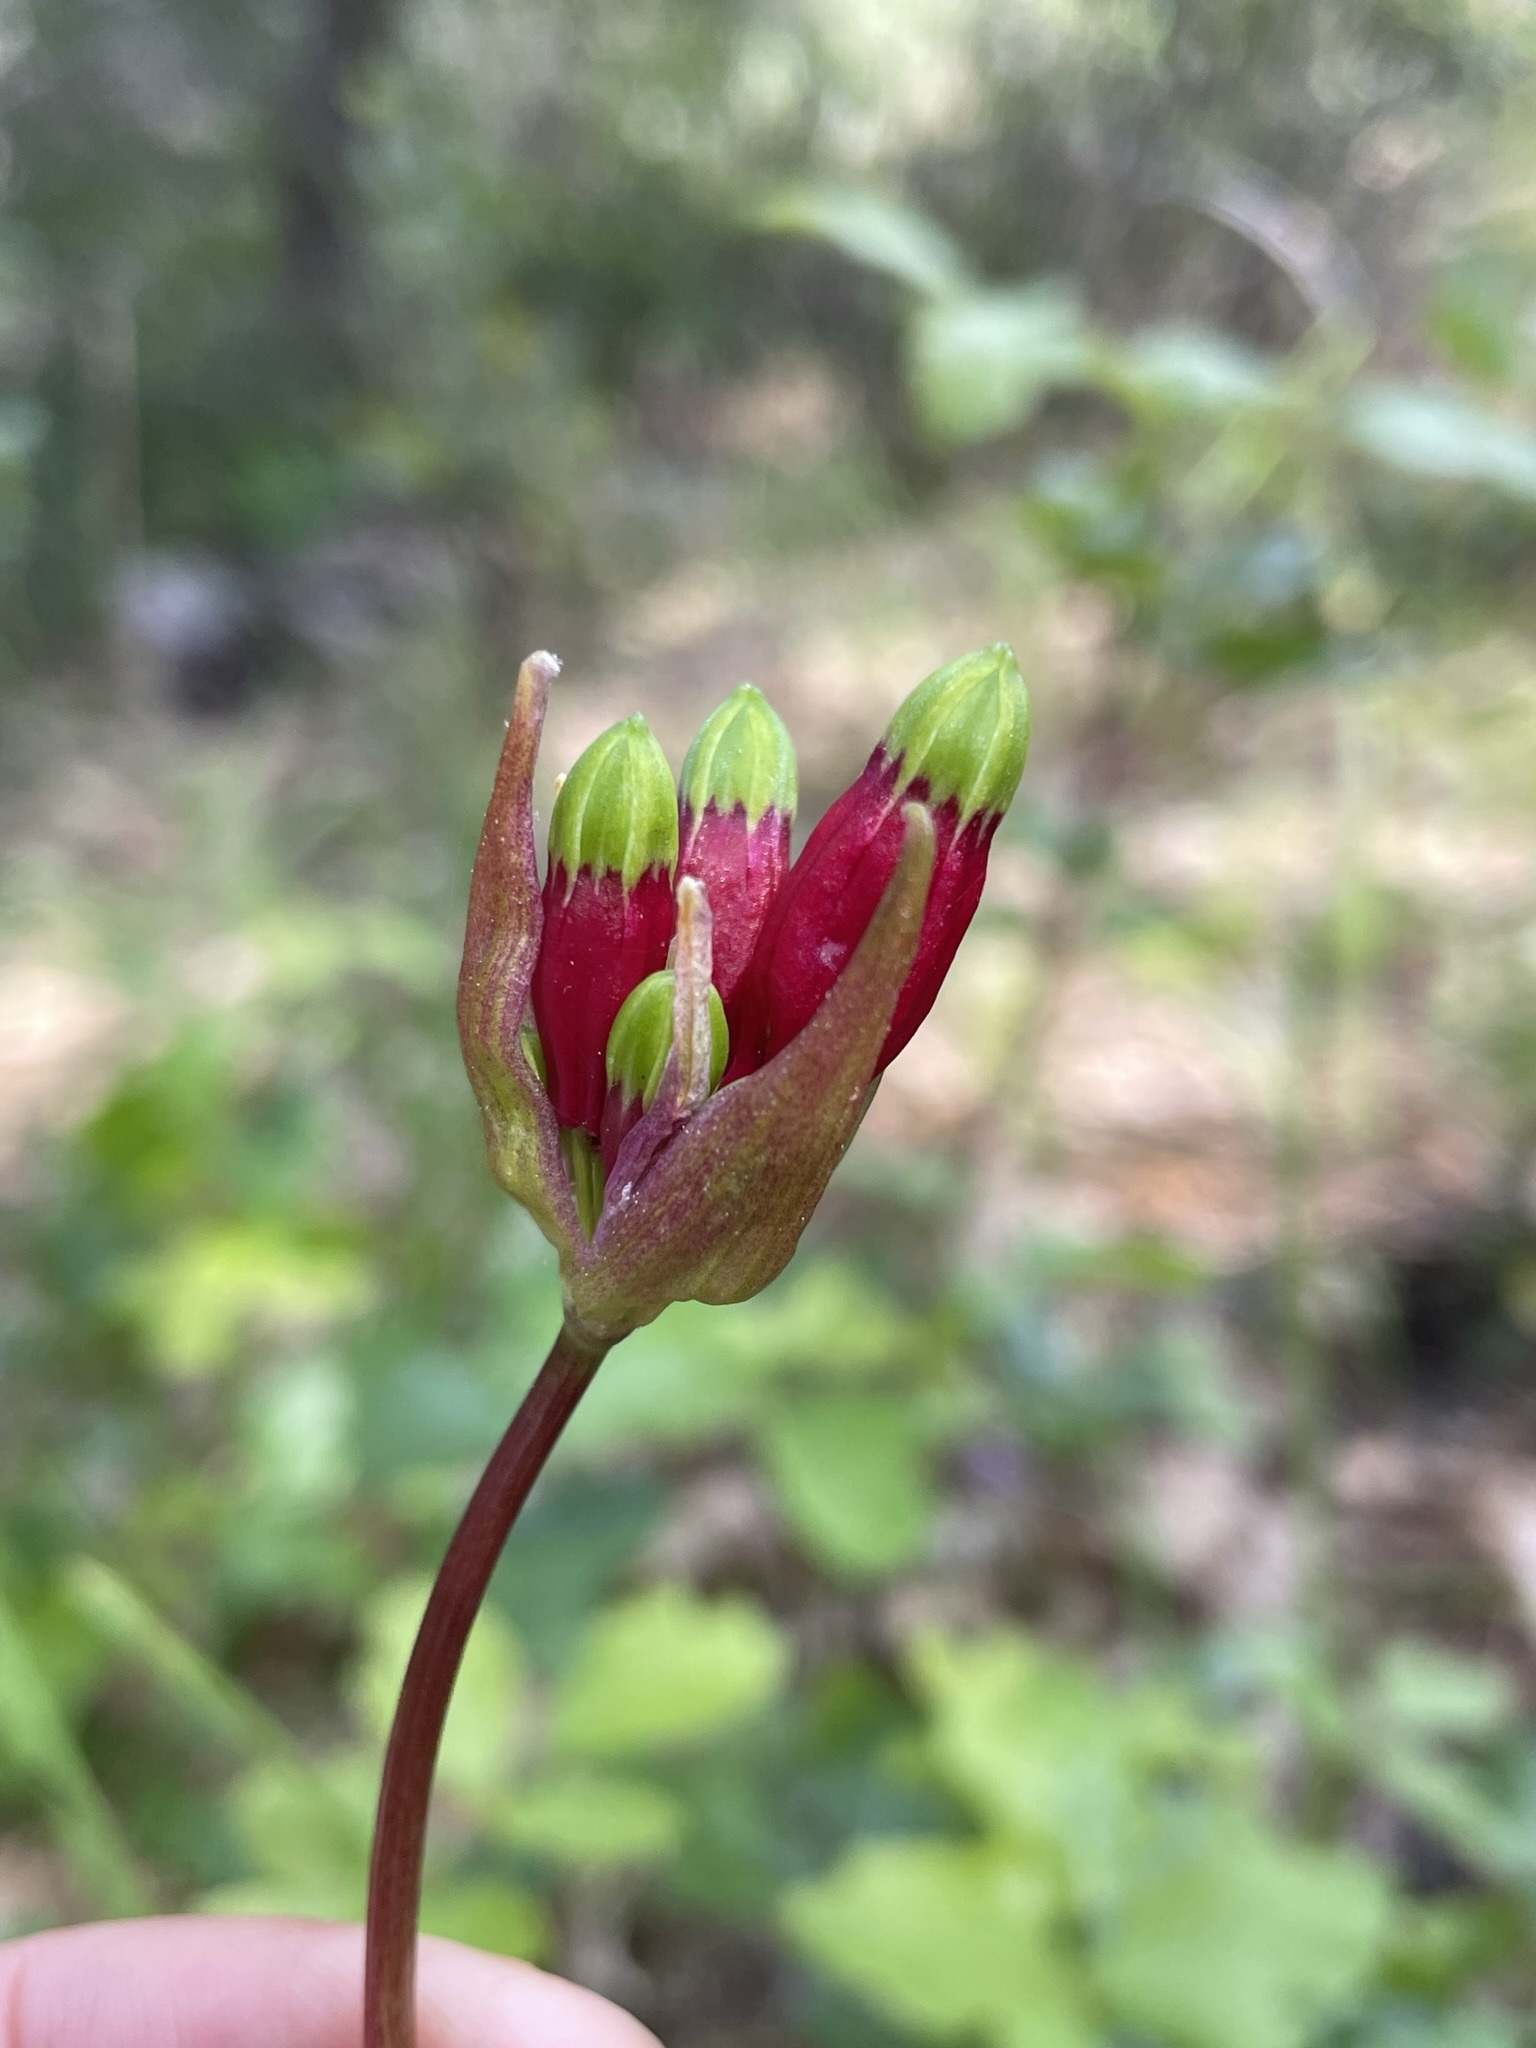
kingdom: Plantae
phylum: Tracheophyta
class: Liliopsida
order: Asparagales
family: Asparagaceae
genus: Dichelostemma
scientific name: Dichelostemma ida-maia
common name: Firecracker-flower
